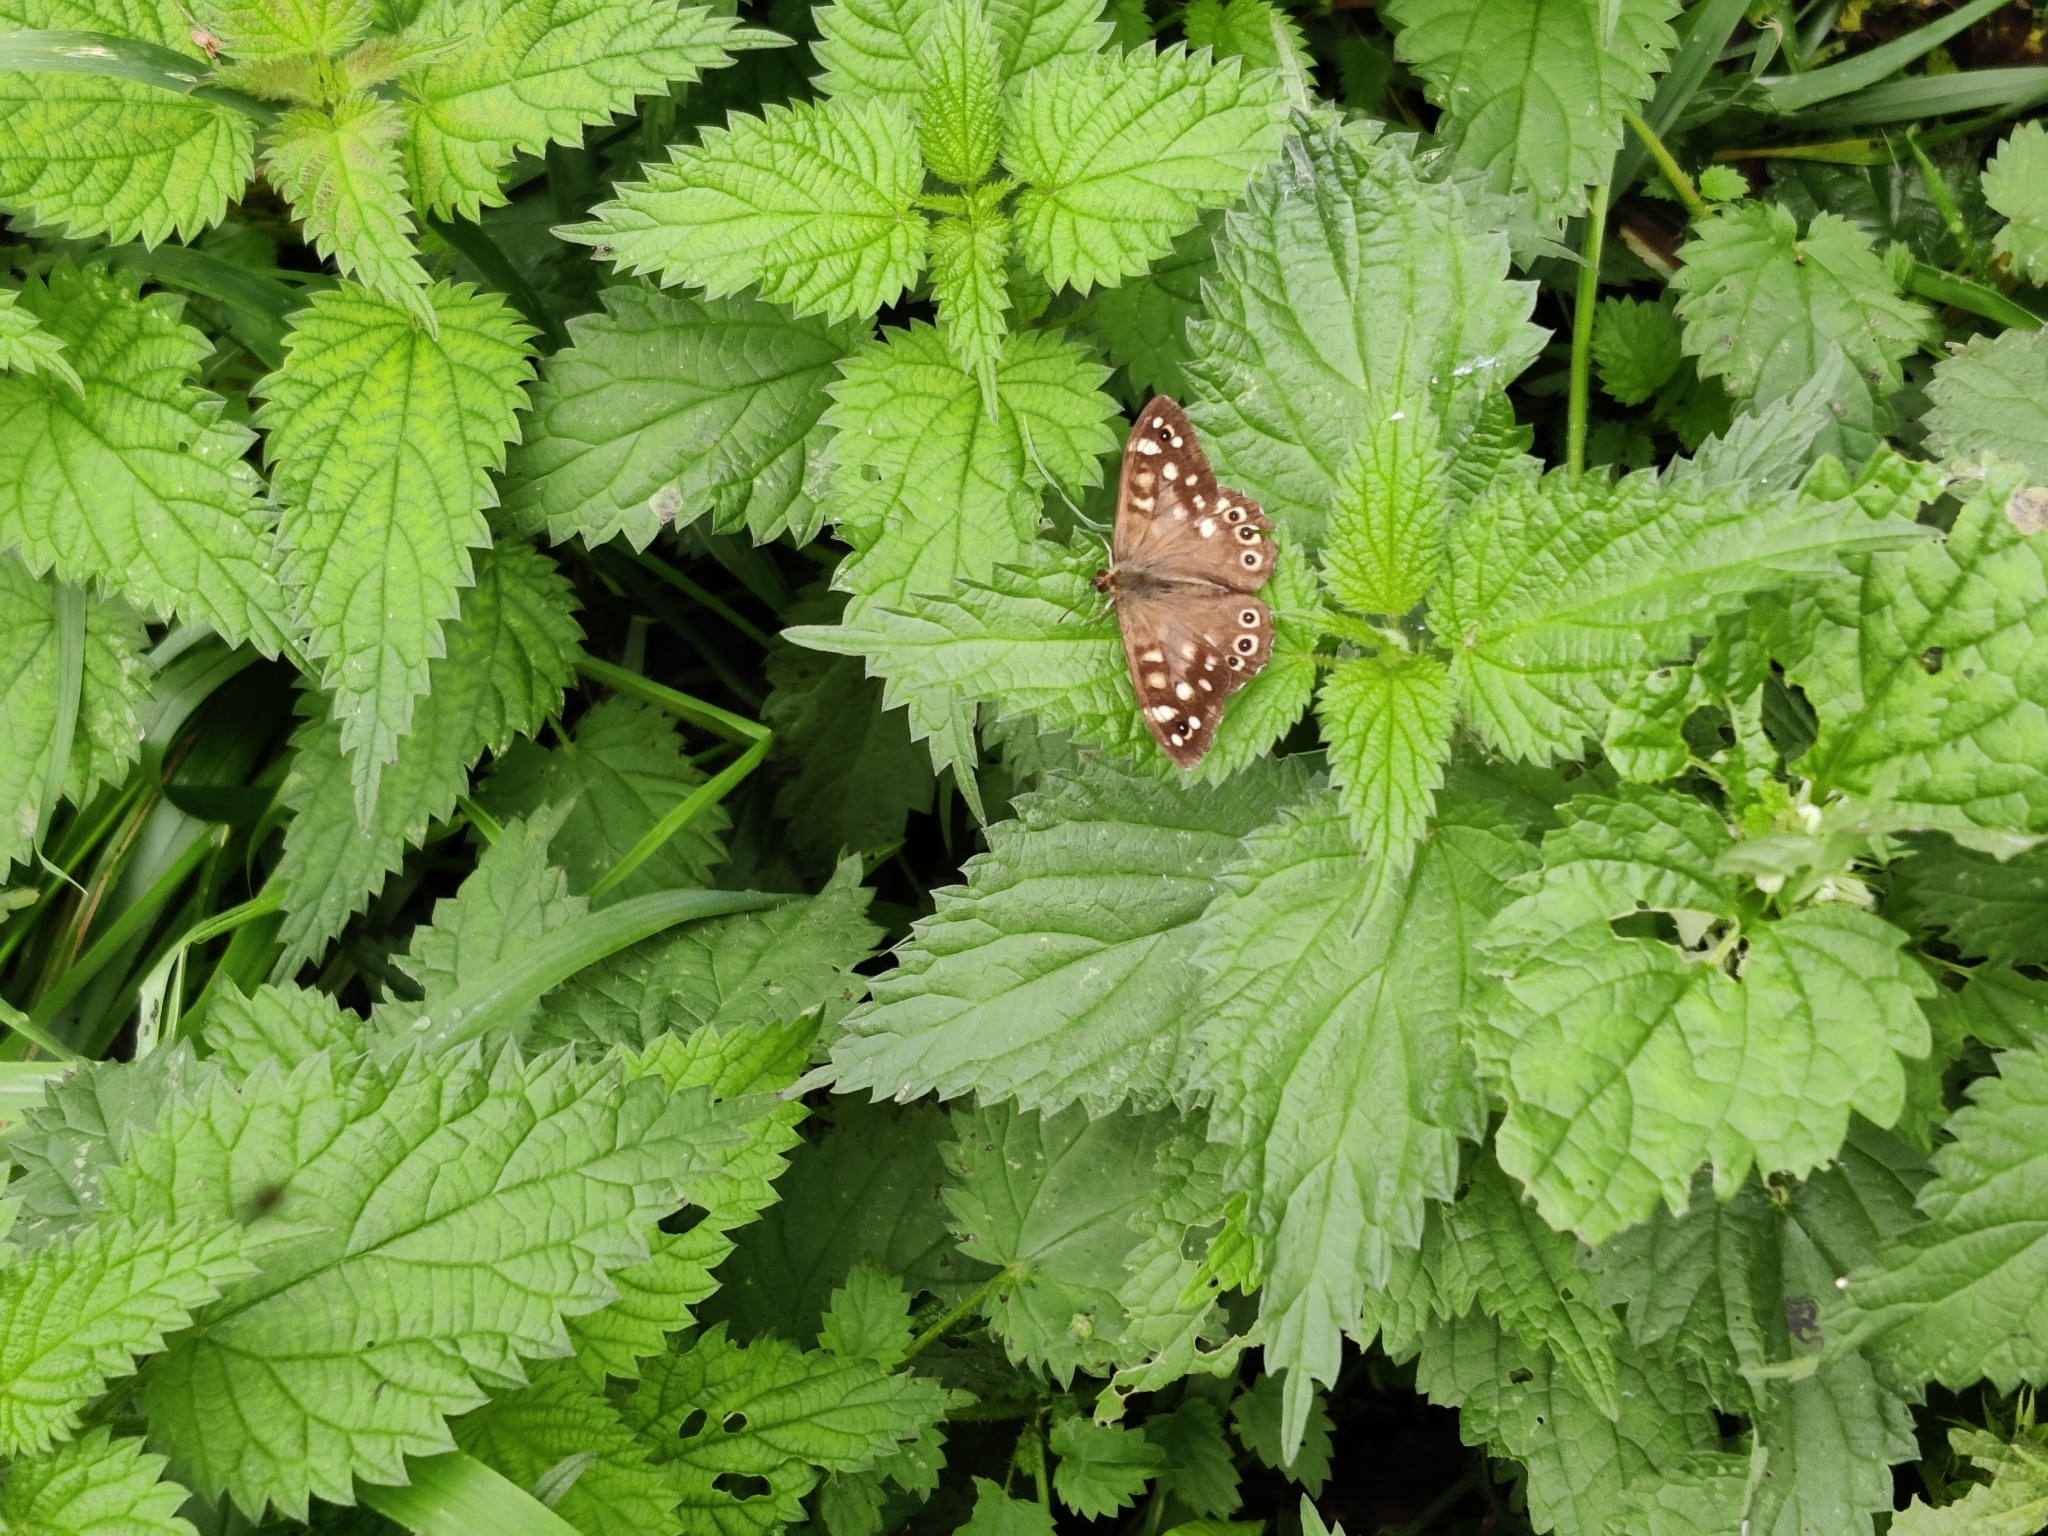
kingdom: Animalia
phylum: Arthropoda
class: Insecta
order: Lepidoptera
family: Nymphalidae
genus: Pararge
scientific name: Pararge aegeria
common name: Speckled wood
